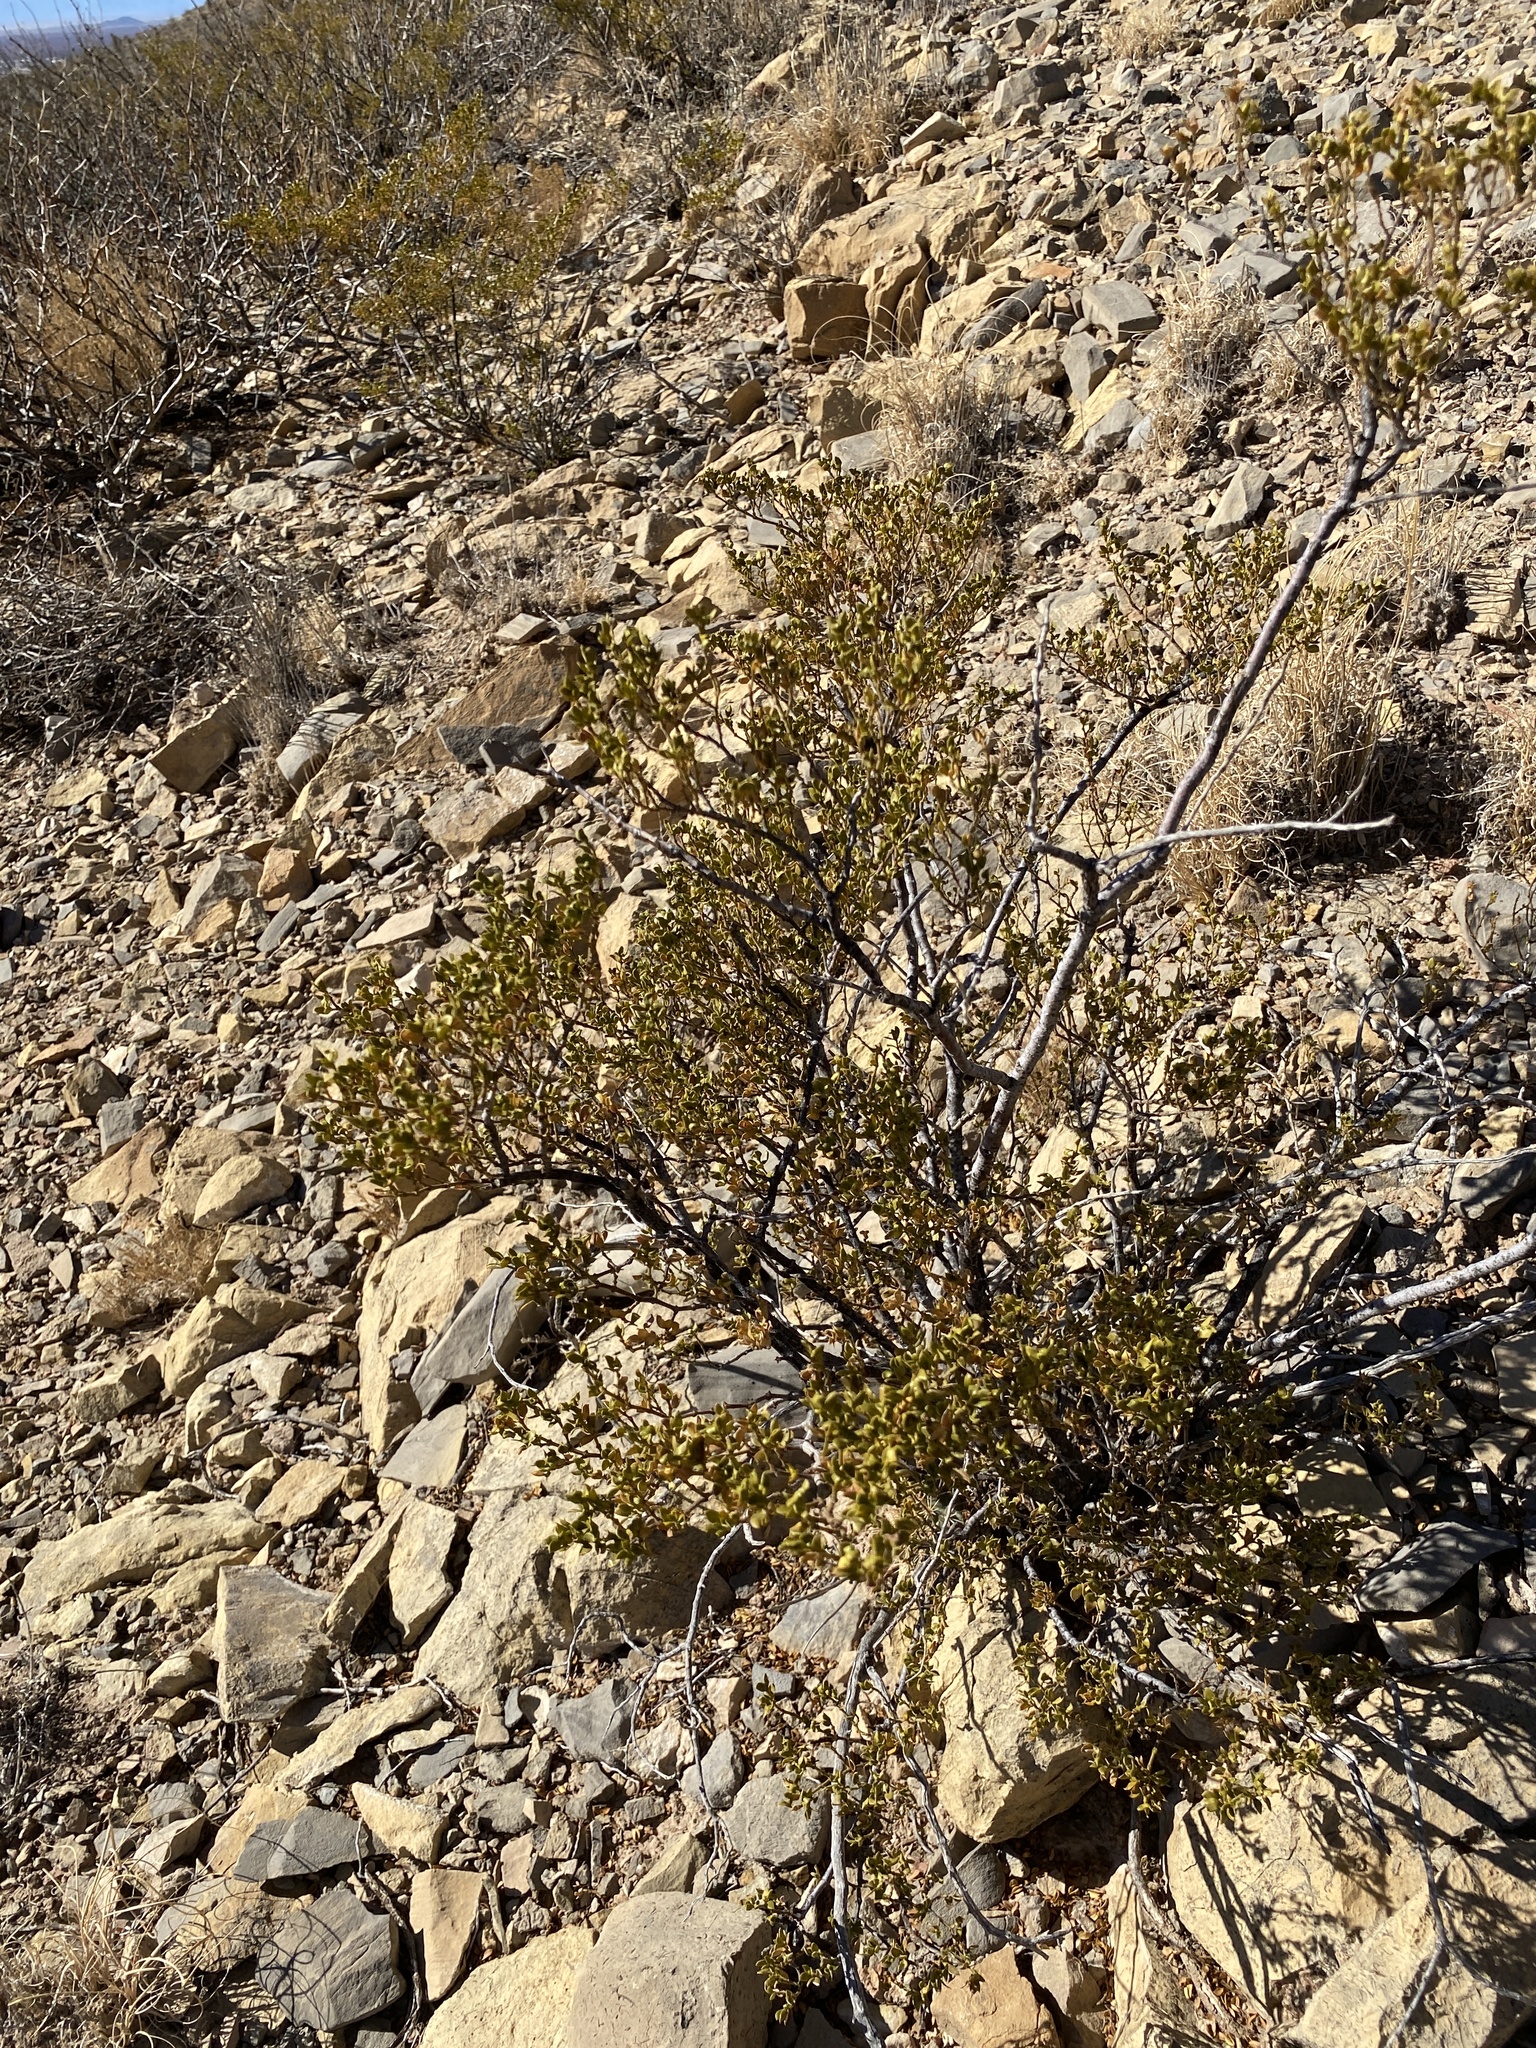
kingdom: Plantae
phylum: Tracheophyta
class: Magnoliopsida
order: Zygophyllales
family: Zygophyllaceae
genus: Larrea
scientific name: Larrea tridentata
